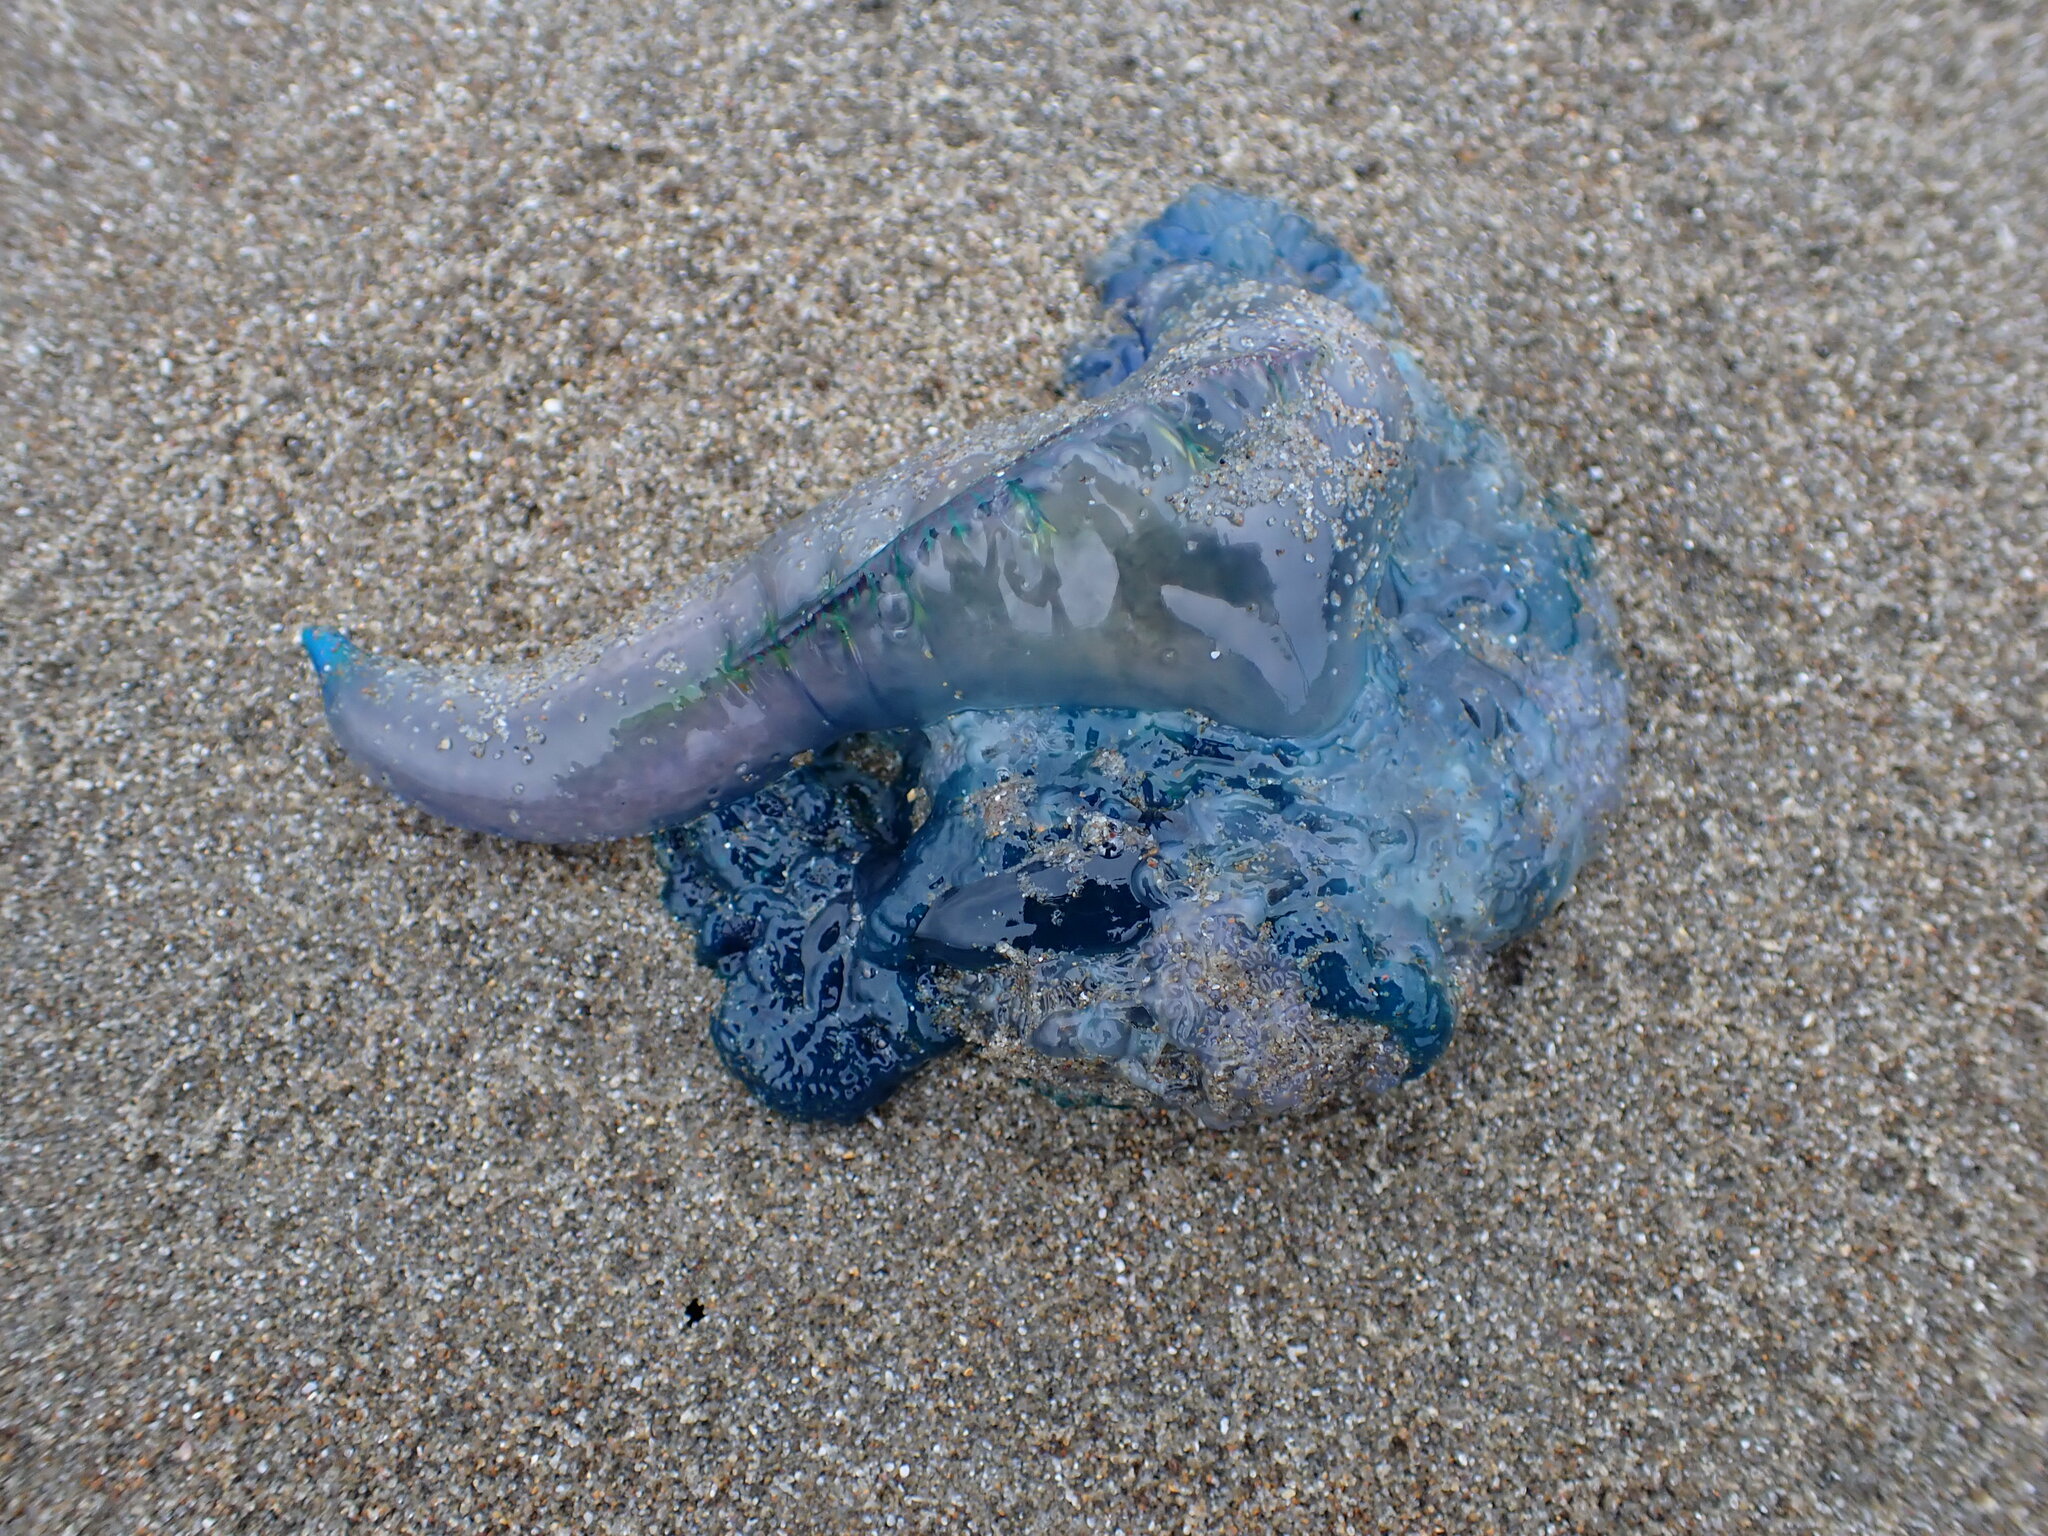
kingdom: Animalia
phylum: Cnidaria
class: Hydrozoa
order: Siphonophorae
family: Physaliidae
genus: Physalia
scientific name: Physalia physalis
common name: Portuguese man-of-war
